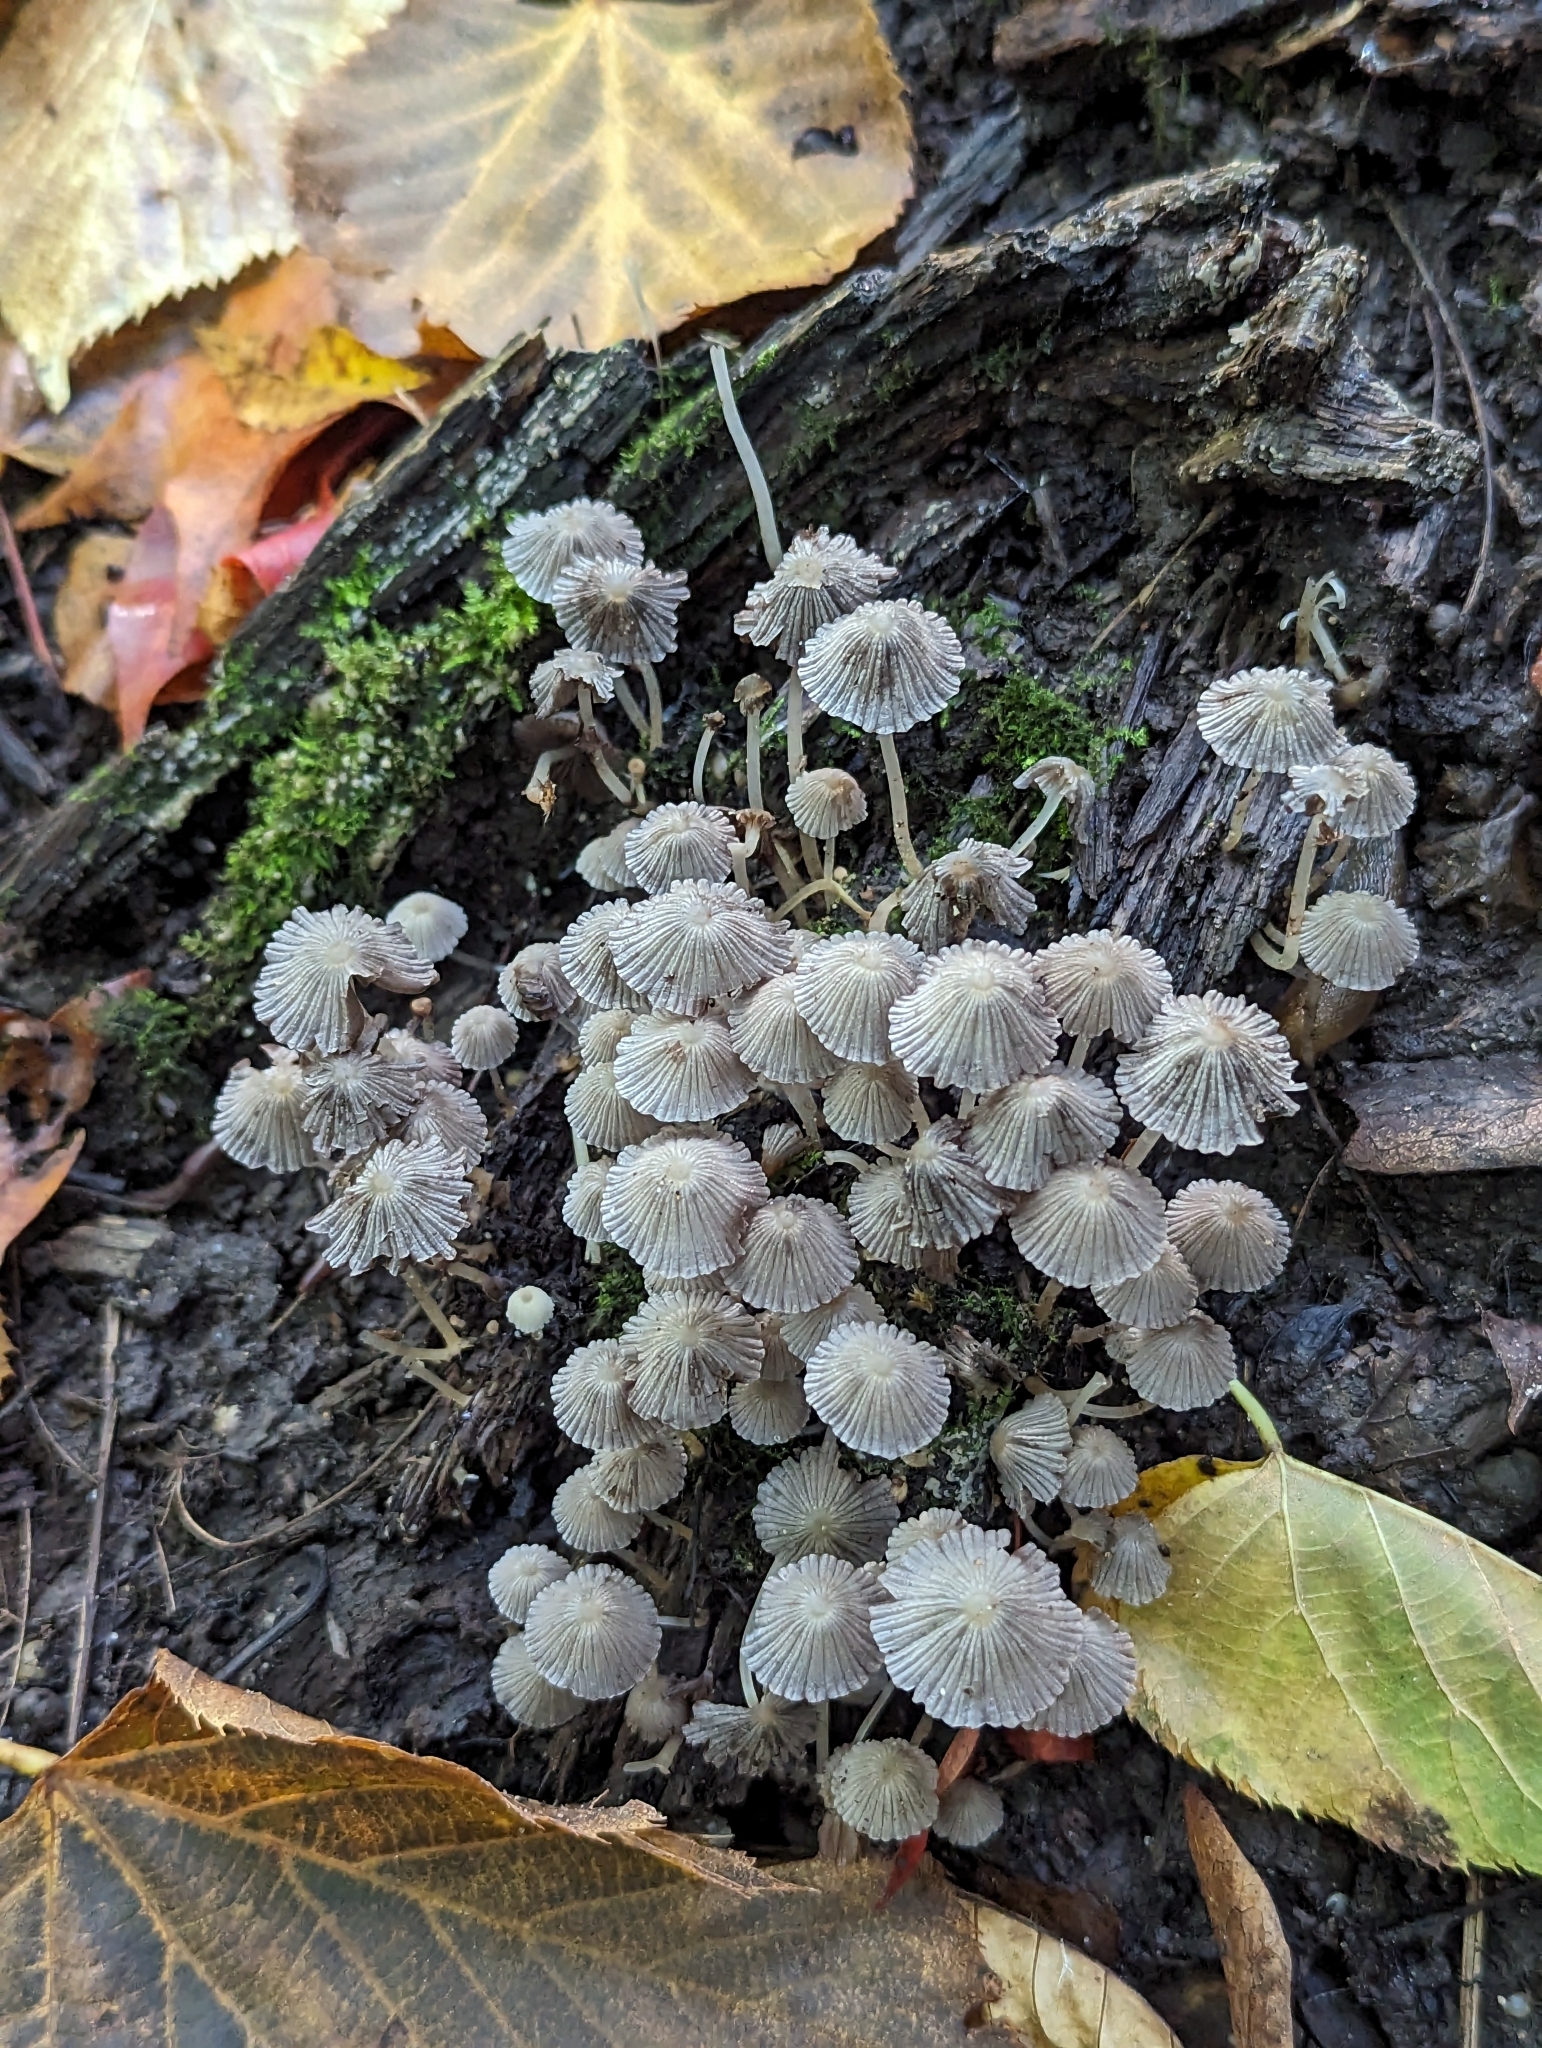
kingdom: Fungi
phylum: Basidiomycota
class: Agaricomycetes
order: Agaricales
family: Psathyrellaceae
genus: Coprinellus
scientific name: Coprinellus disseminatus
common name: Fairies' bonnets
